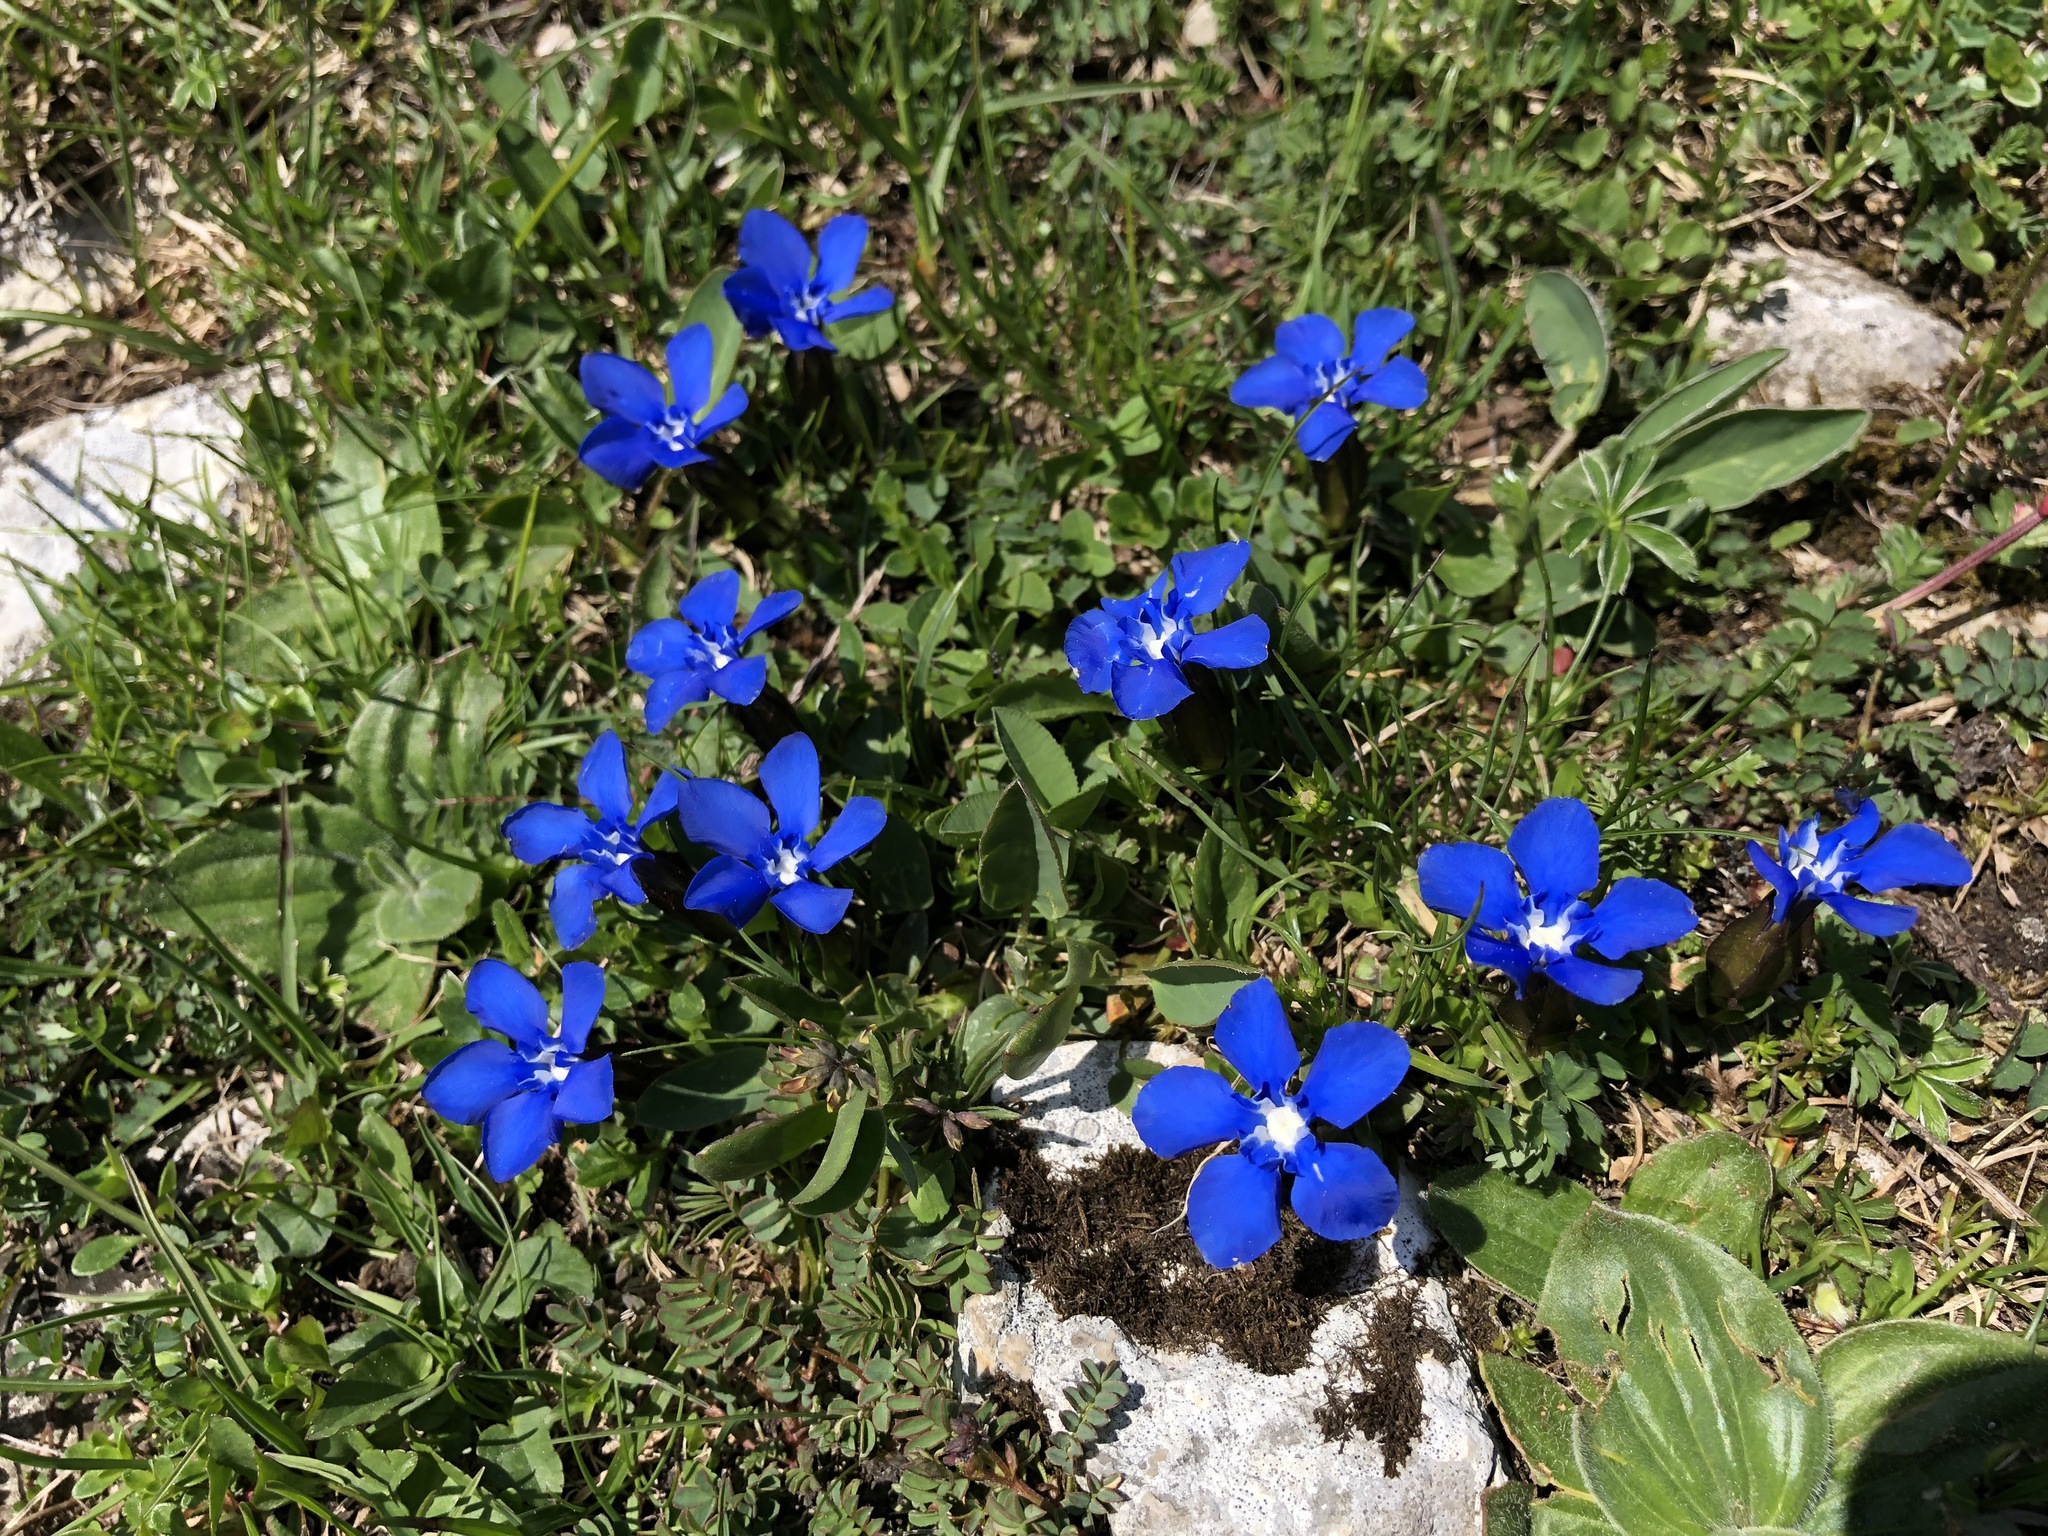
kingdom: Plantae
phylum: Tracheophyta
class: Magnoliopsida
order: Gentianales
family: Gentianaceae
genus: Gentiana
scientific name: Gentiana verna
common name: Spring gentian
